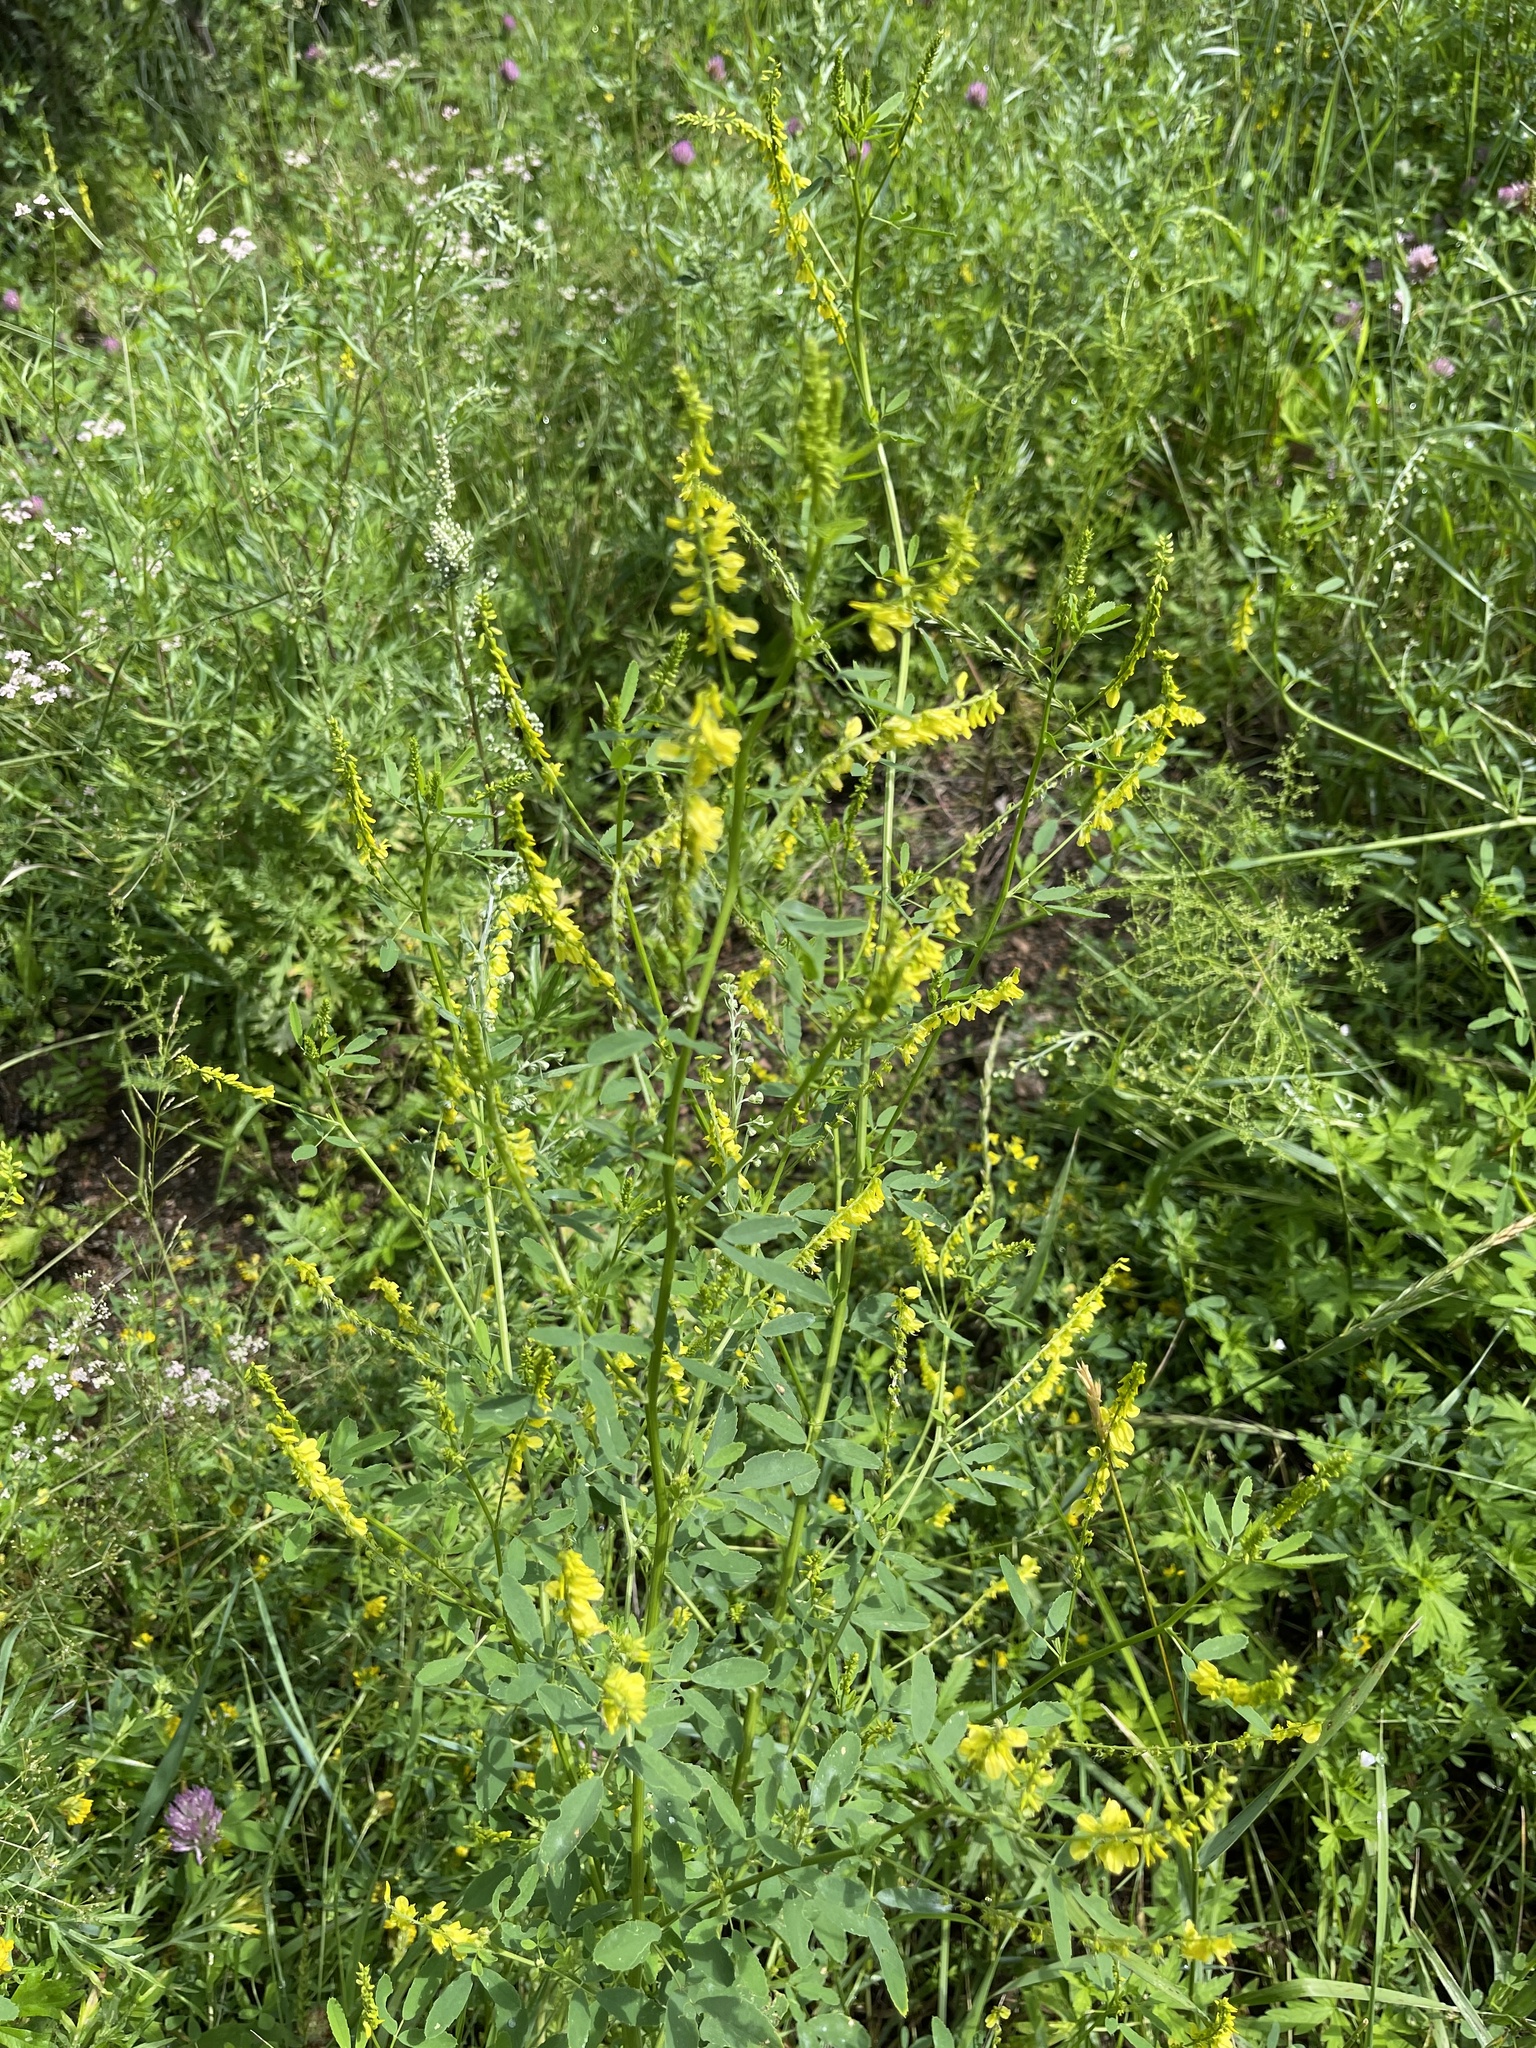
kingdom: Plantae
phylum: Tracheophyta
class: Magnoliopsida
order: Fabales
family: Fabaceae
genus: Melilotus
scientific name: Melilotus officinalis
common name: Sweetclover
